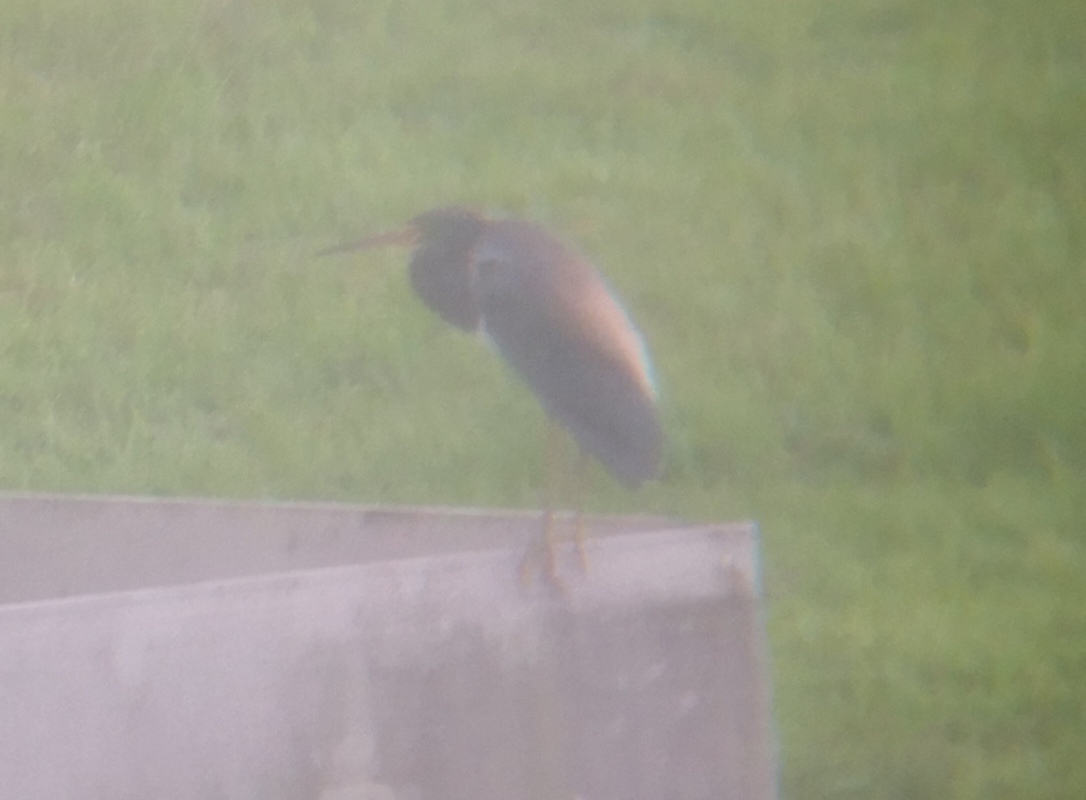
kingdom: Animalia
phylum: Chordata
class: Aves
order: Pelecaniformes
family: Ardeidae
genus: Egretta
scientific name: Egretta tricolor
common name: Tricolored heron
